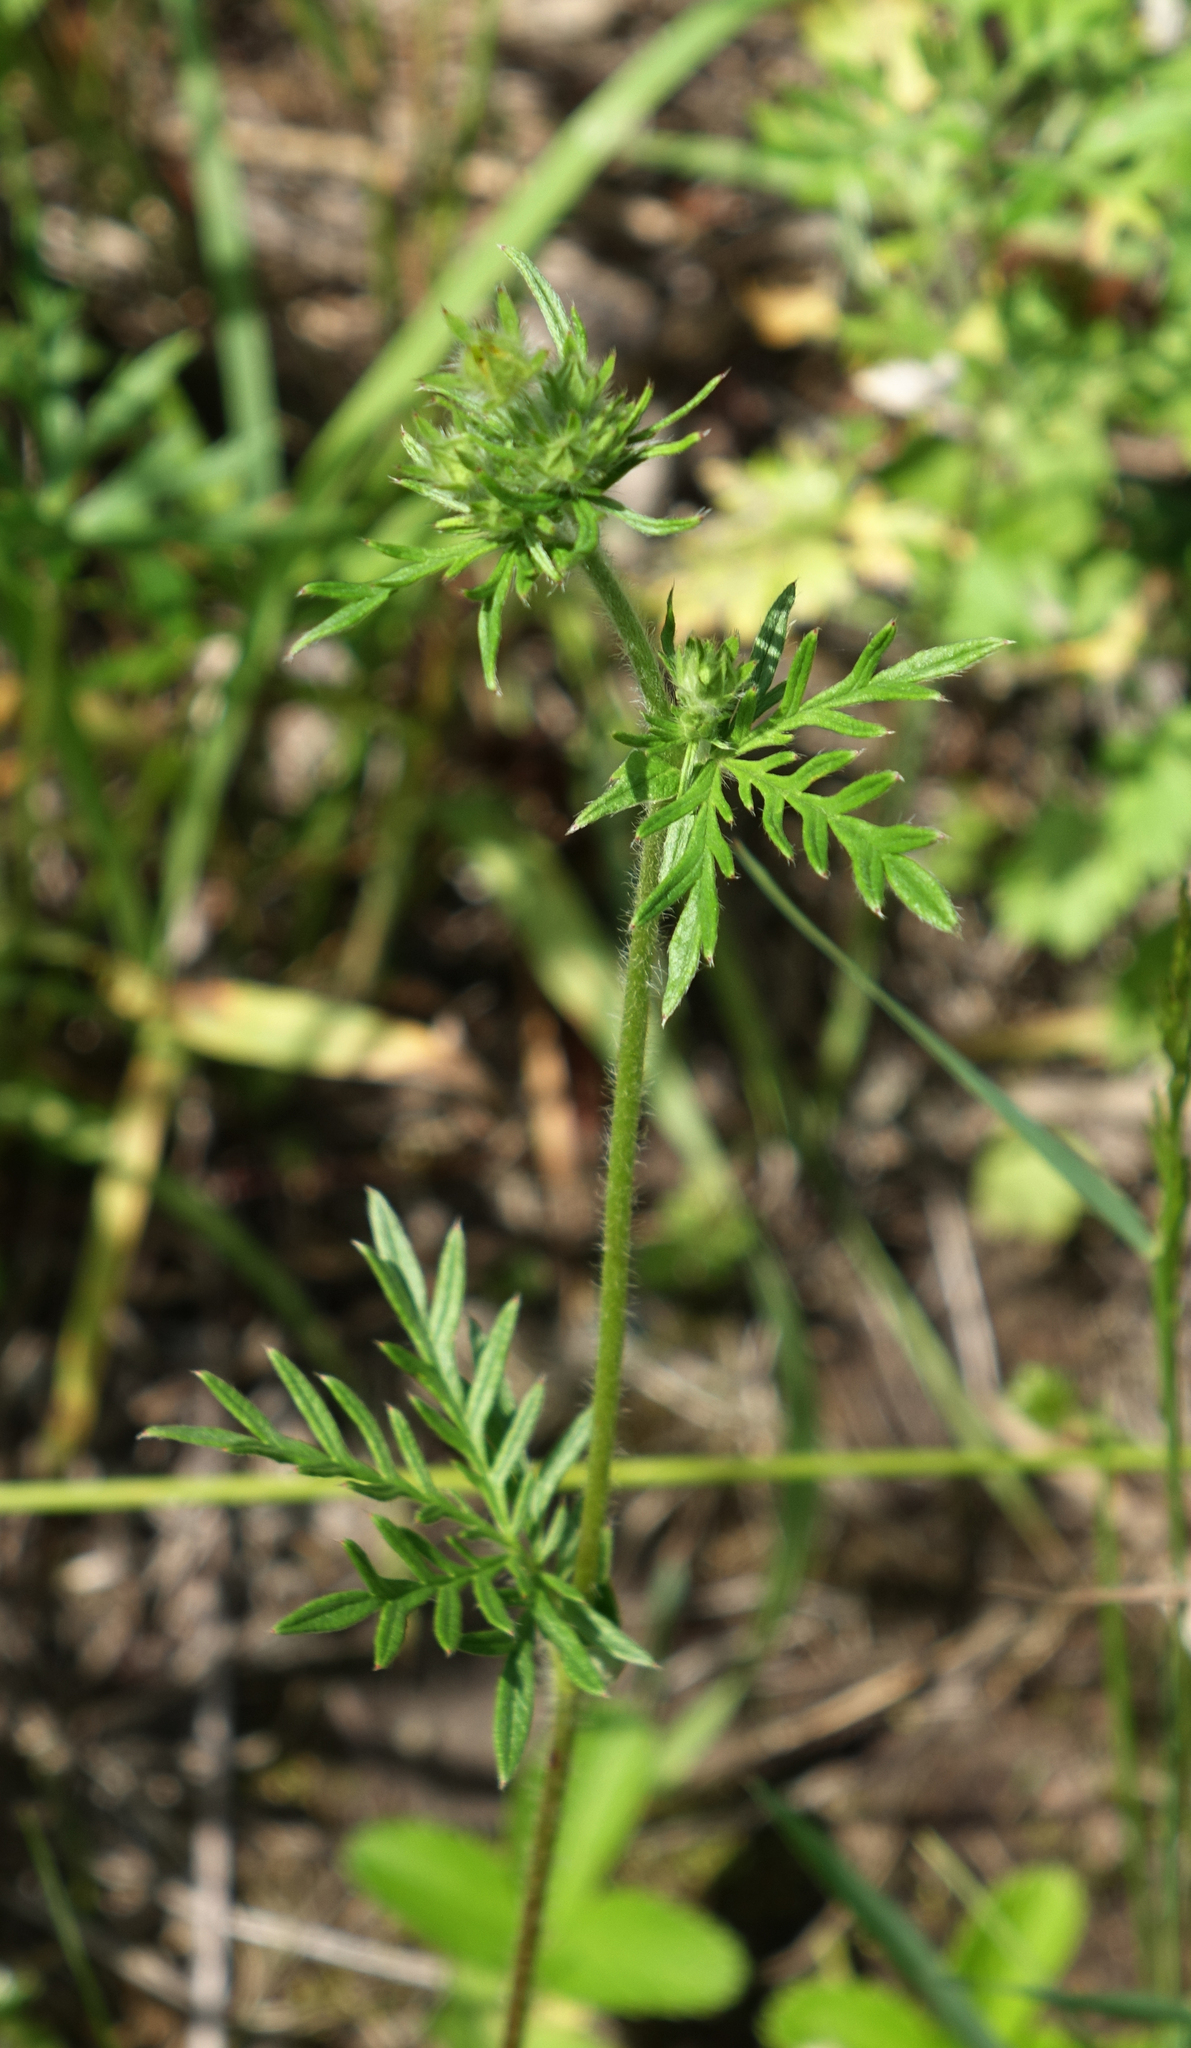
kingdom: Plantae
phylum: Tracheophyta
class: Magnoliopsida
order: Rosales
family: Rosaceae
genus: Potentilla
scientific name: Potentilla tergemina
